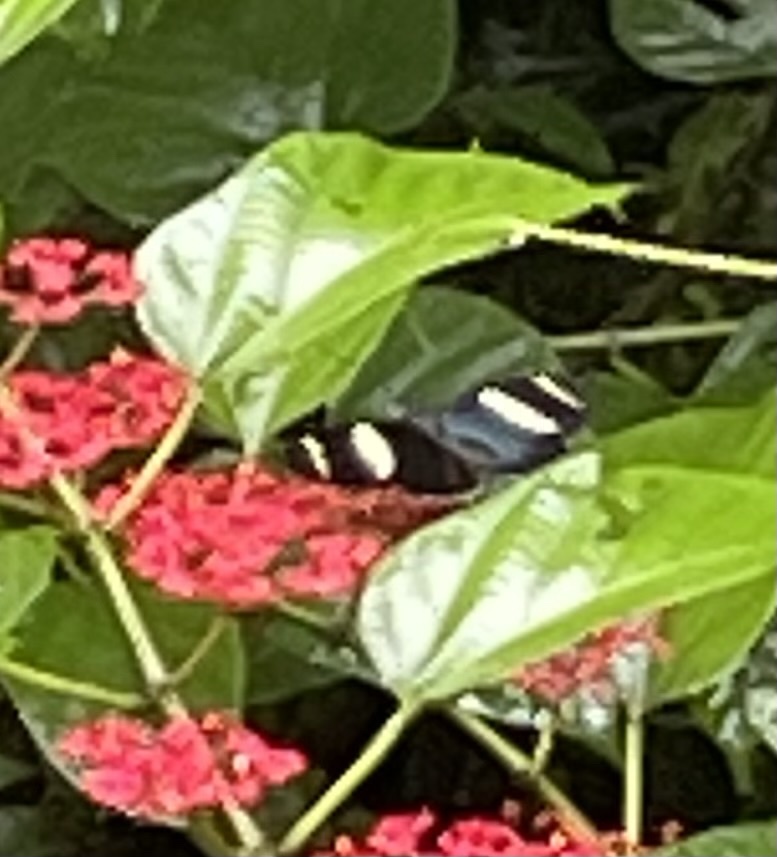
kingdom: Animalia
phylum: Arthropoda
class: Insecta
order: Lepidoptera
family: Nymphalidae
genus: Heliconius
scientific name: Heliconius sara
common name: Sara longwing
